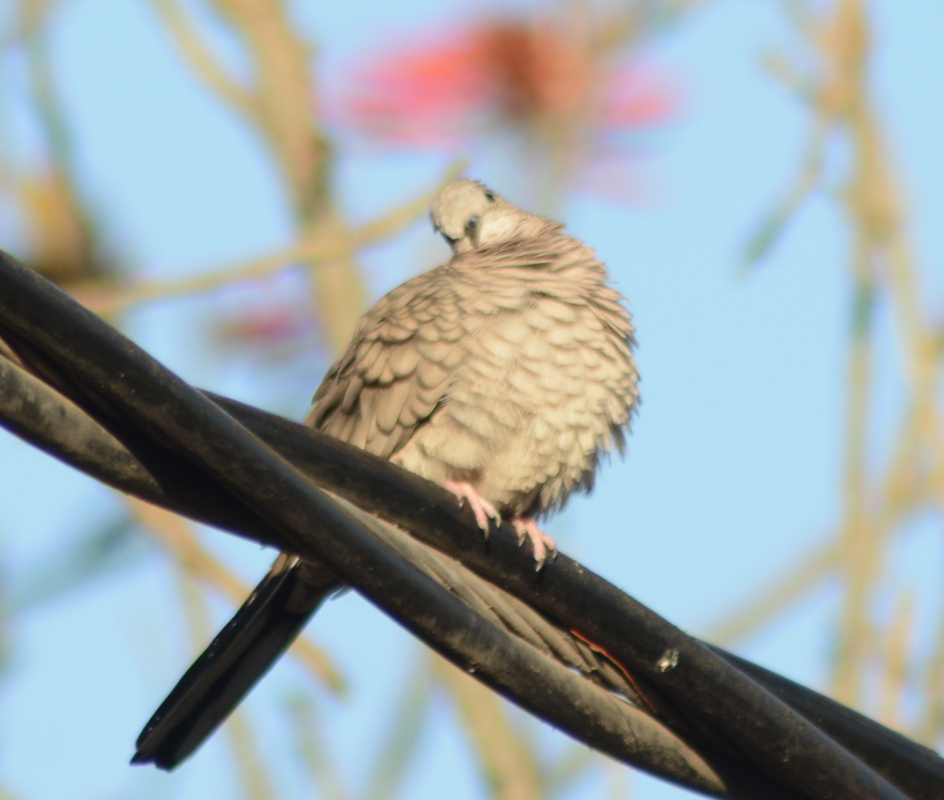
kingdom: Animalia
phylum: Chordata
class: Aves
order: Columbiformes
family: Columbidae
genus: Columbina
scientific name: Columbina inca
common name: Inca dove
